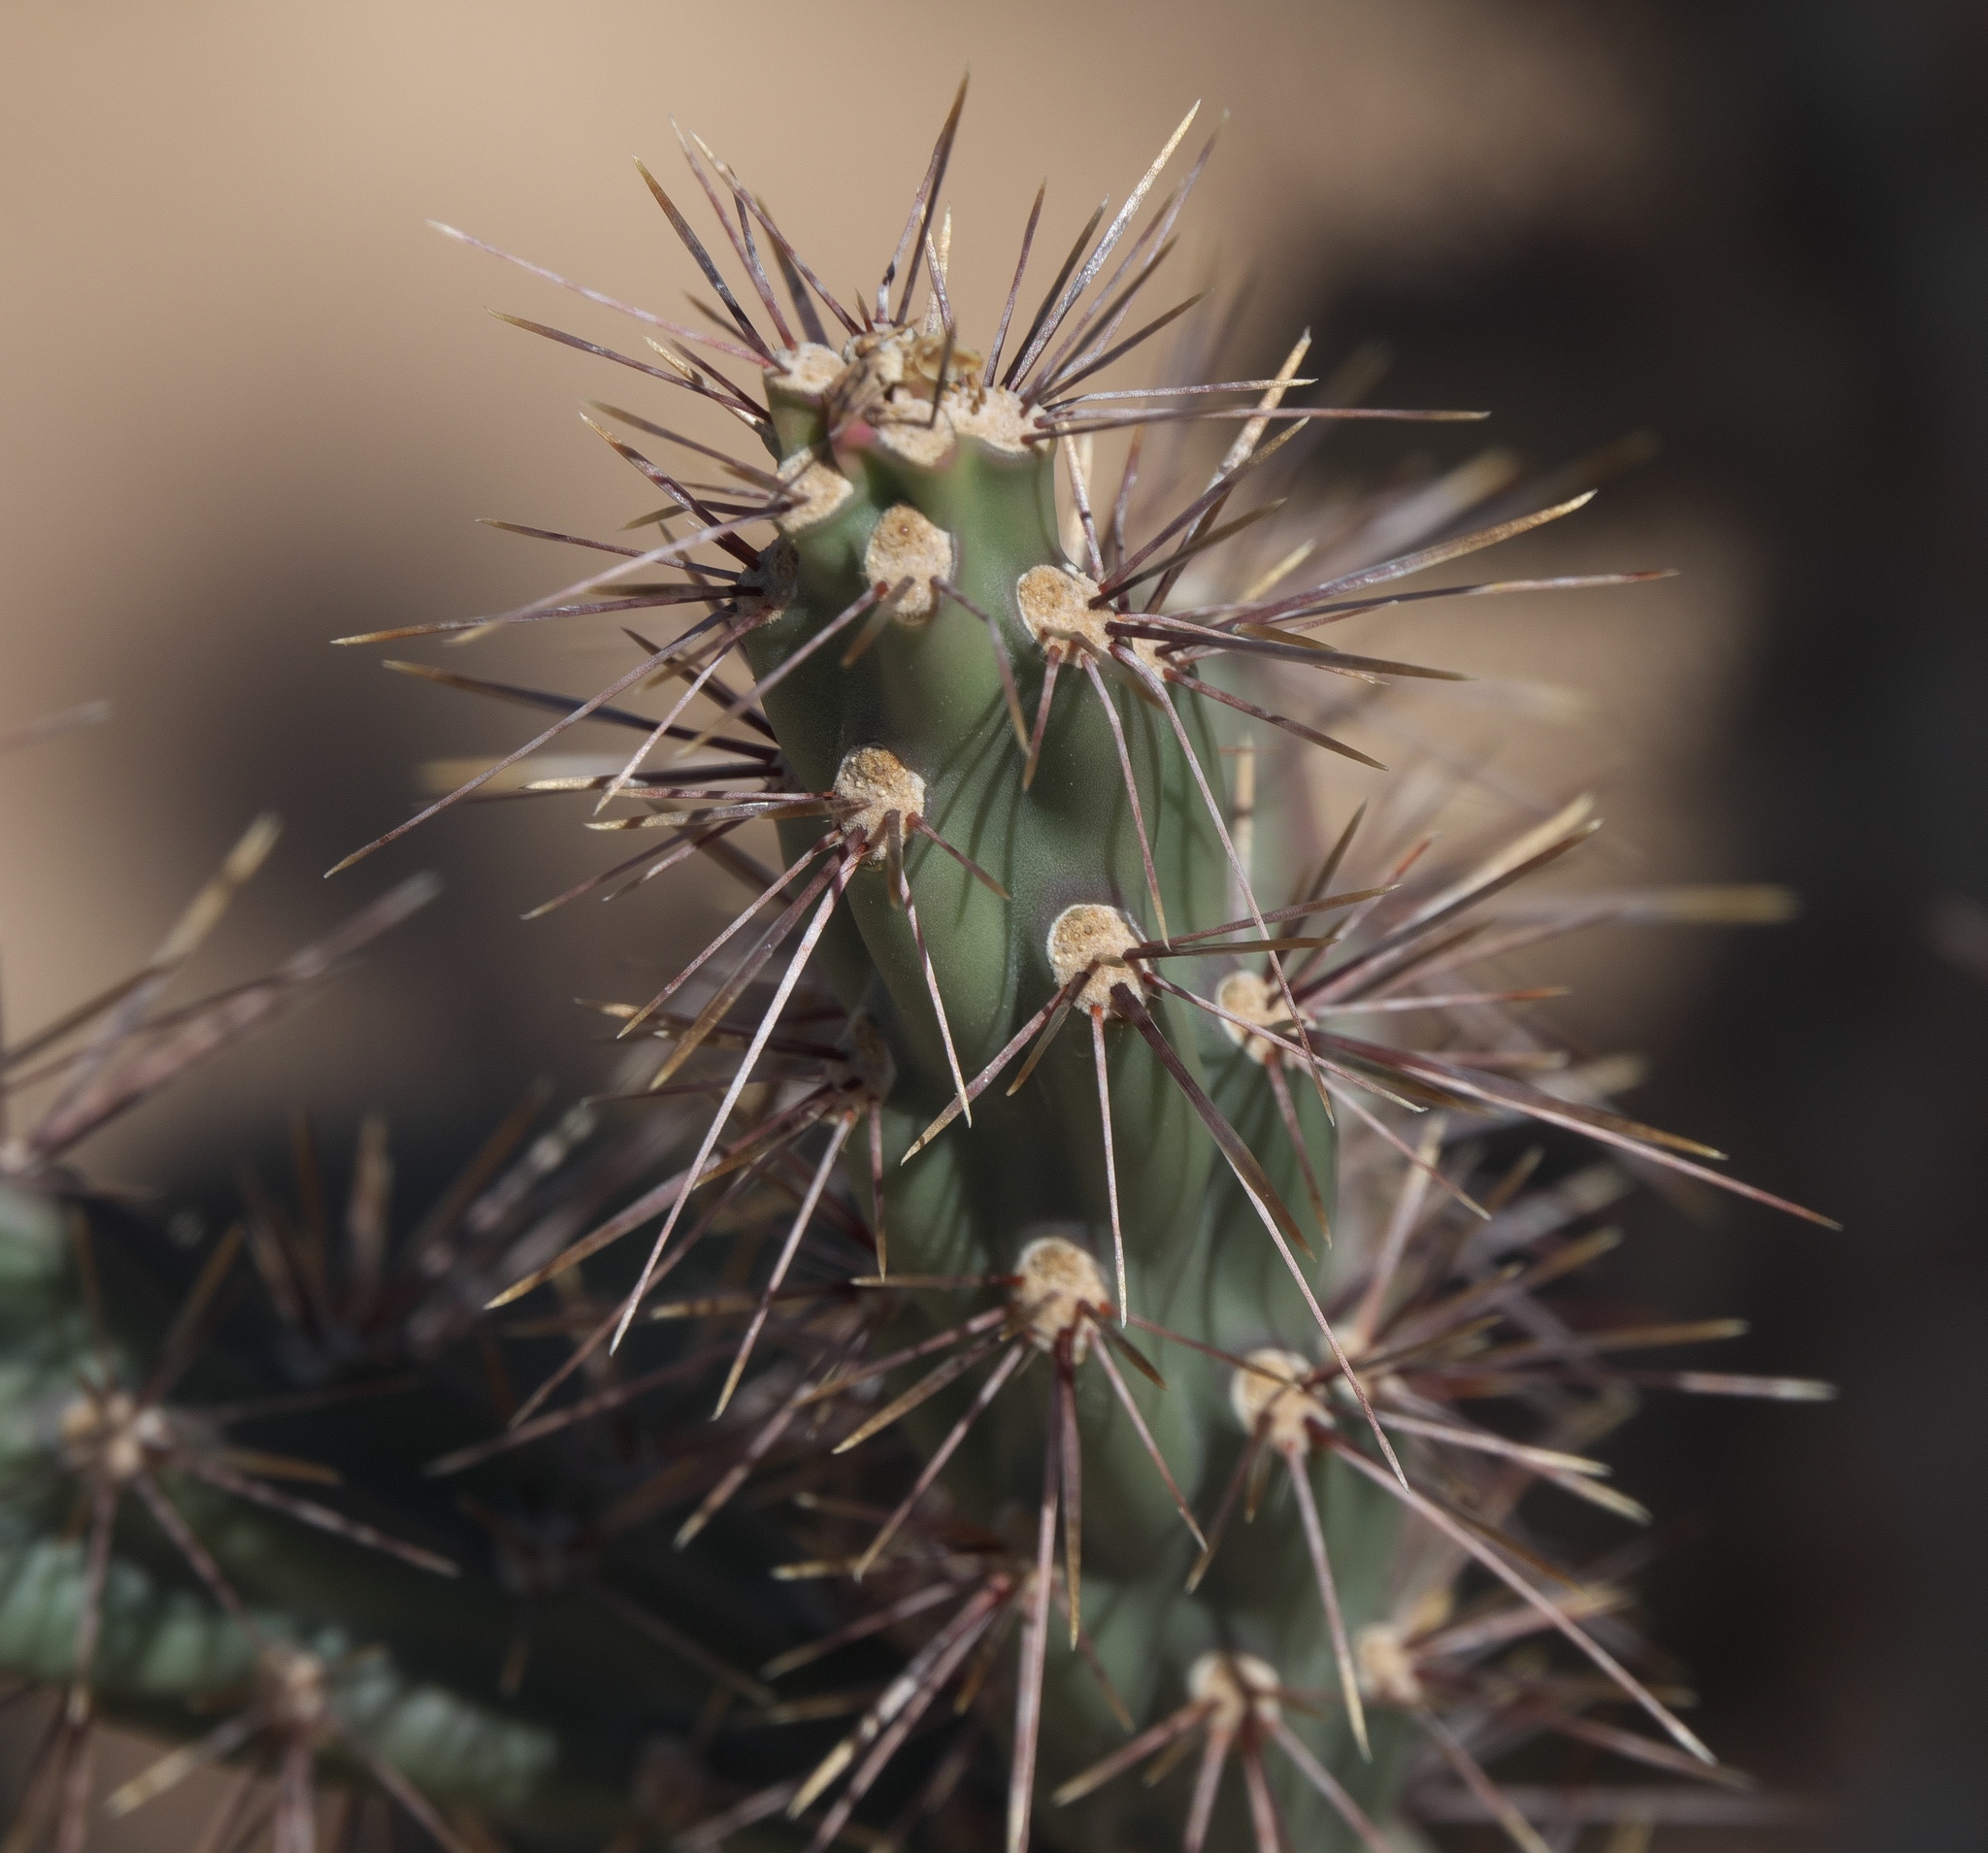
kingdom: Plantae
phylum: Tracheophyta
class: Magnoliopsida
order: Caryophyllales
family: Cactaceae
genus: Cylindropuntia
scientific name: Cylindropuntia acanthocarpa
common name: Buckhorn cholla
